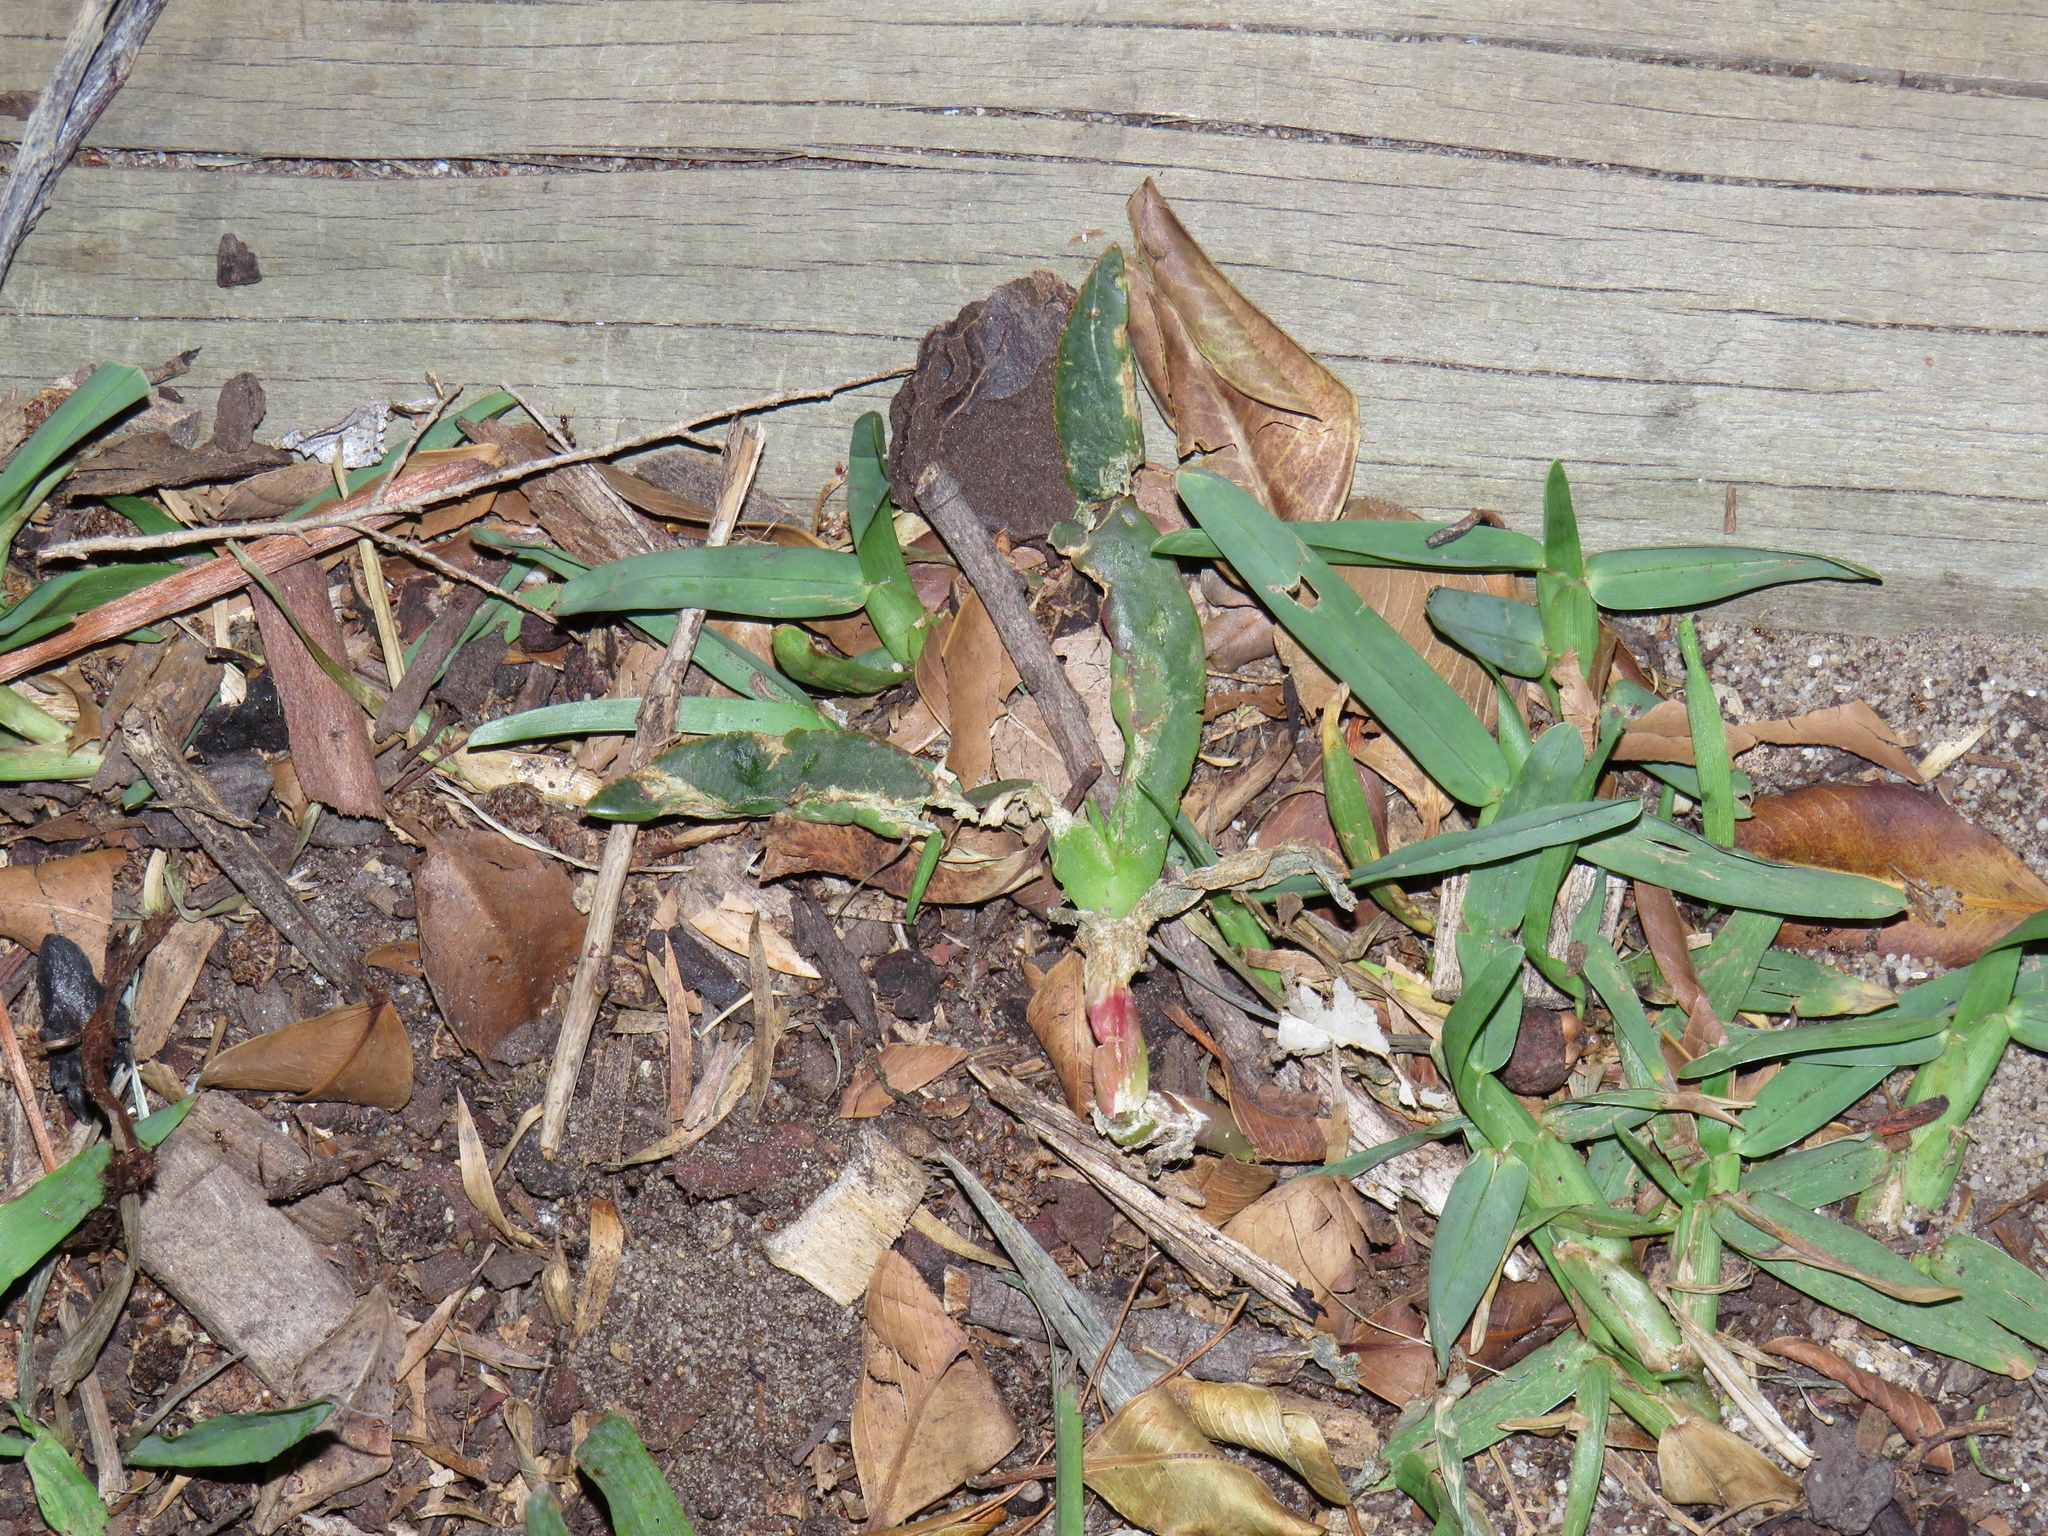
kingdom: Plantae
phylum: Tracheophyta
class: Magnoliopsida
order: Caryophyllales
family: Aizoaceae
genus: Carpobrotus
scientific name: Carpobrotus edulis
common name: Hottentot-fig
